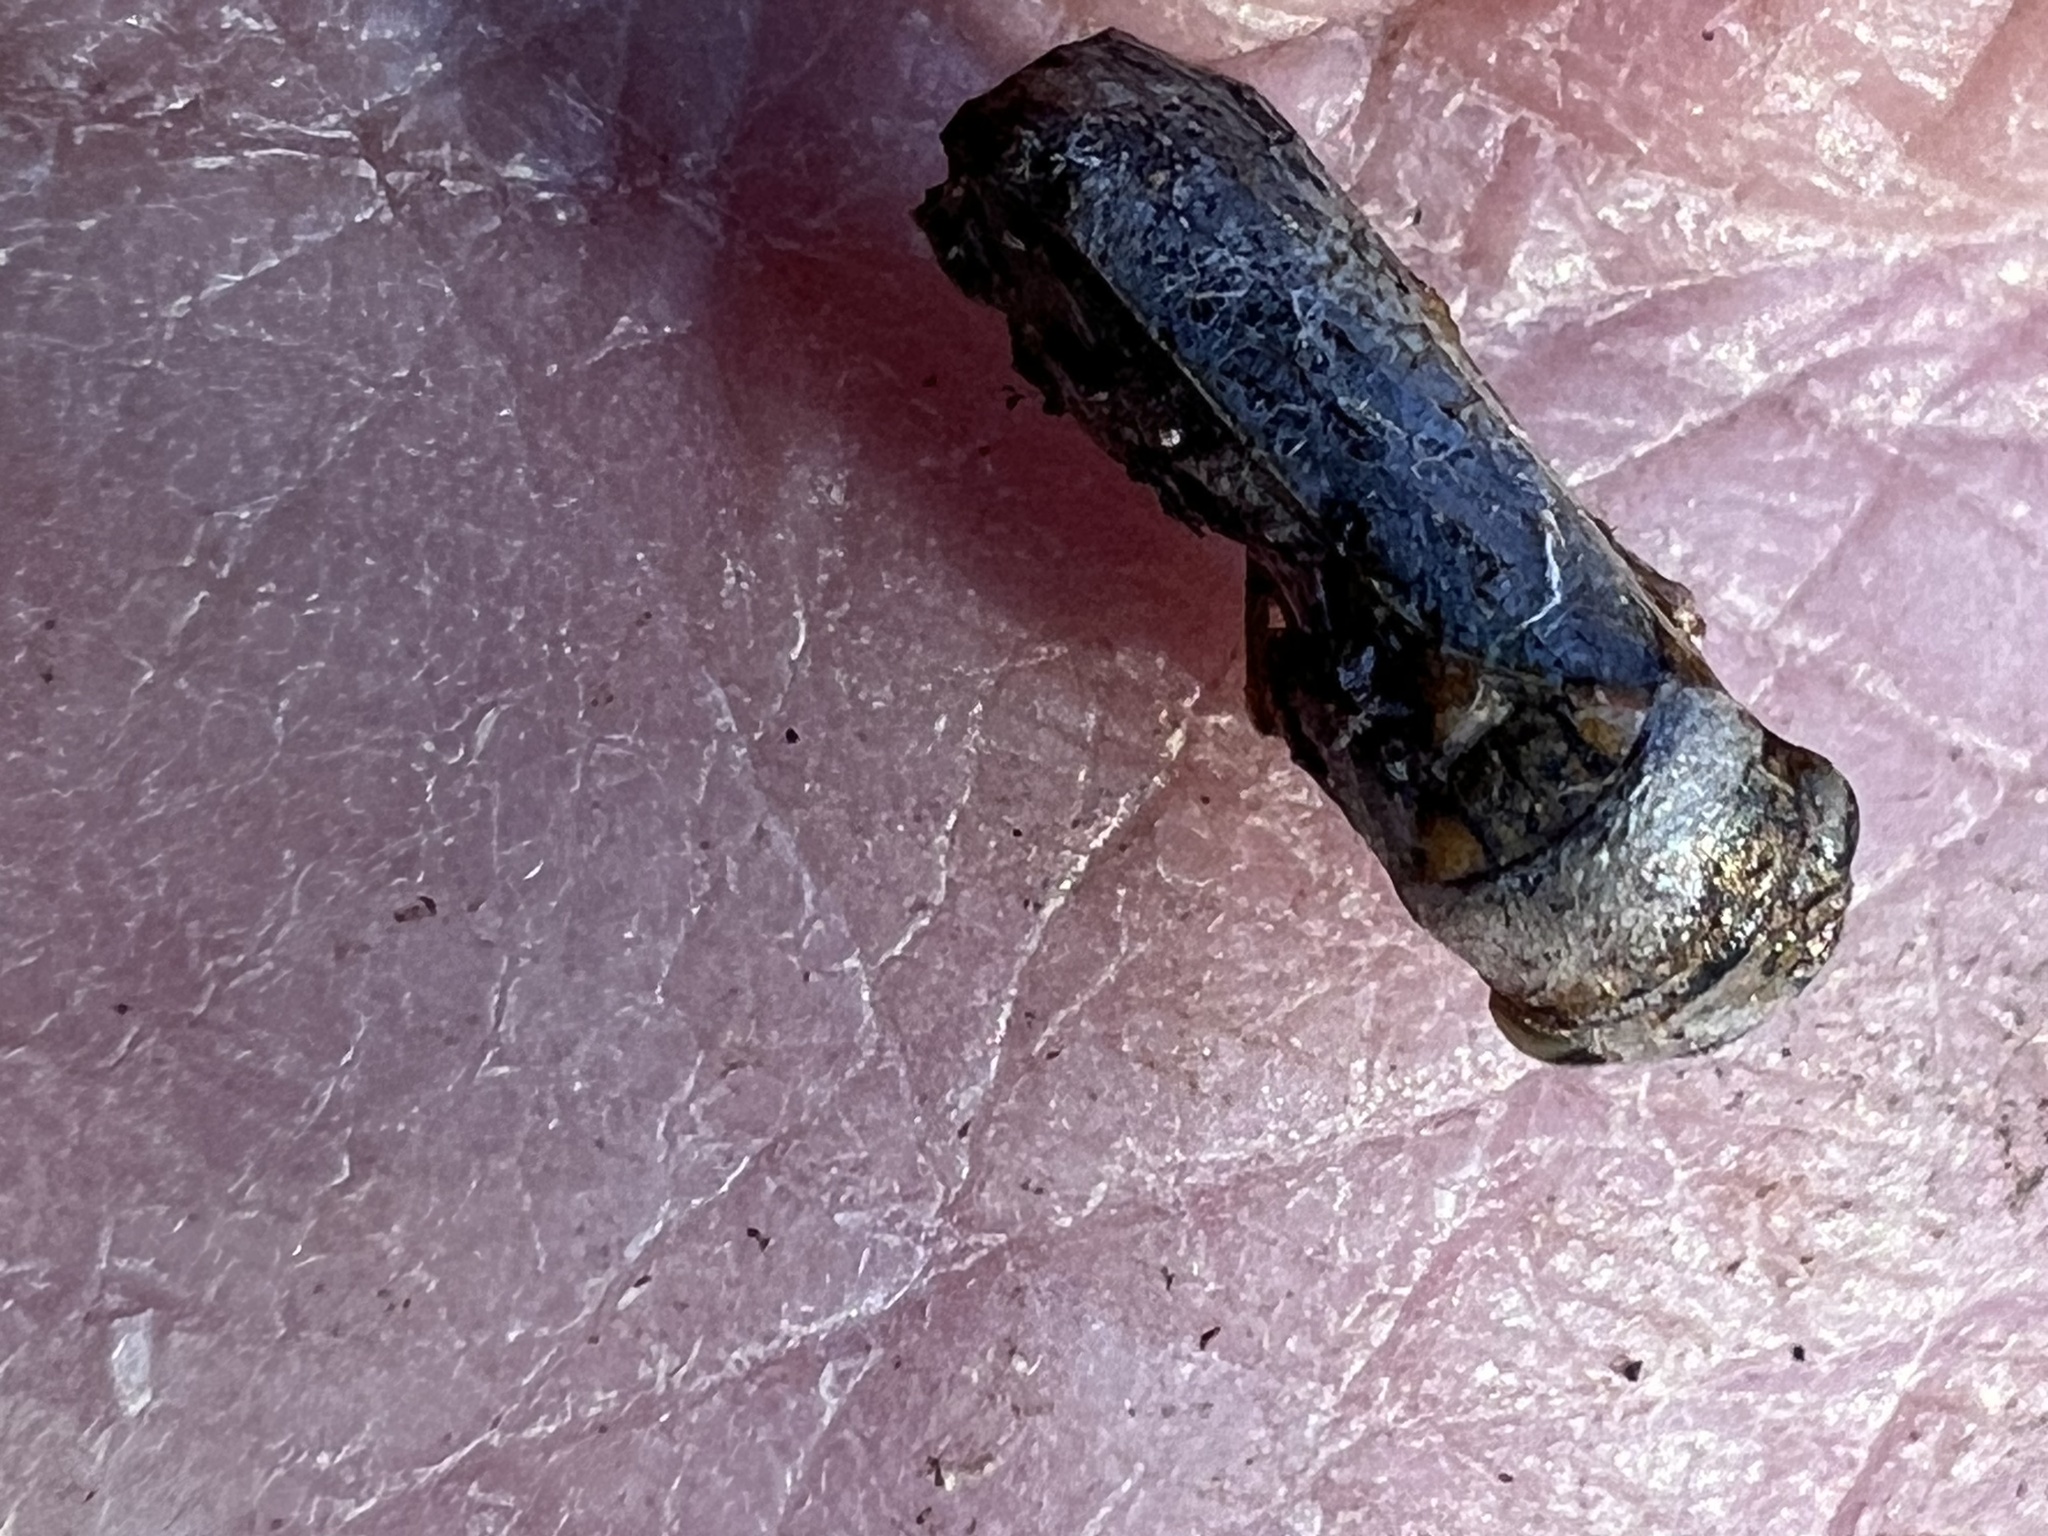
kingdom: Animalia
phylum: Arthropoda
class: Insecta
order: Hemiptera
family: Cicadellidae
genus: Oncometopia
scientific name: Oncometopia orbona
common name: Broad-headed sharpshooter
